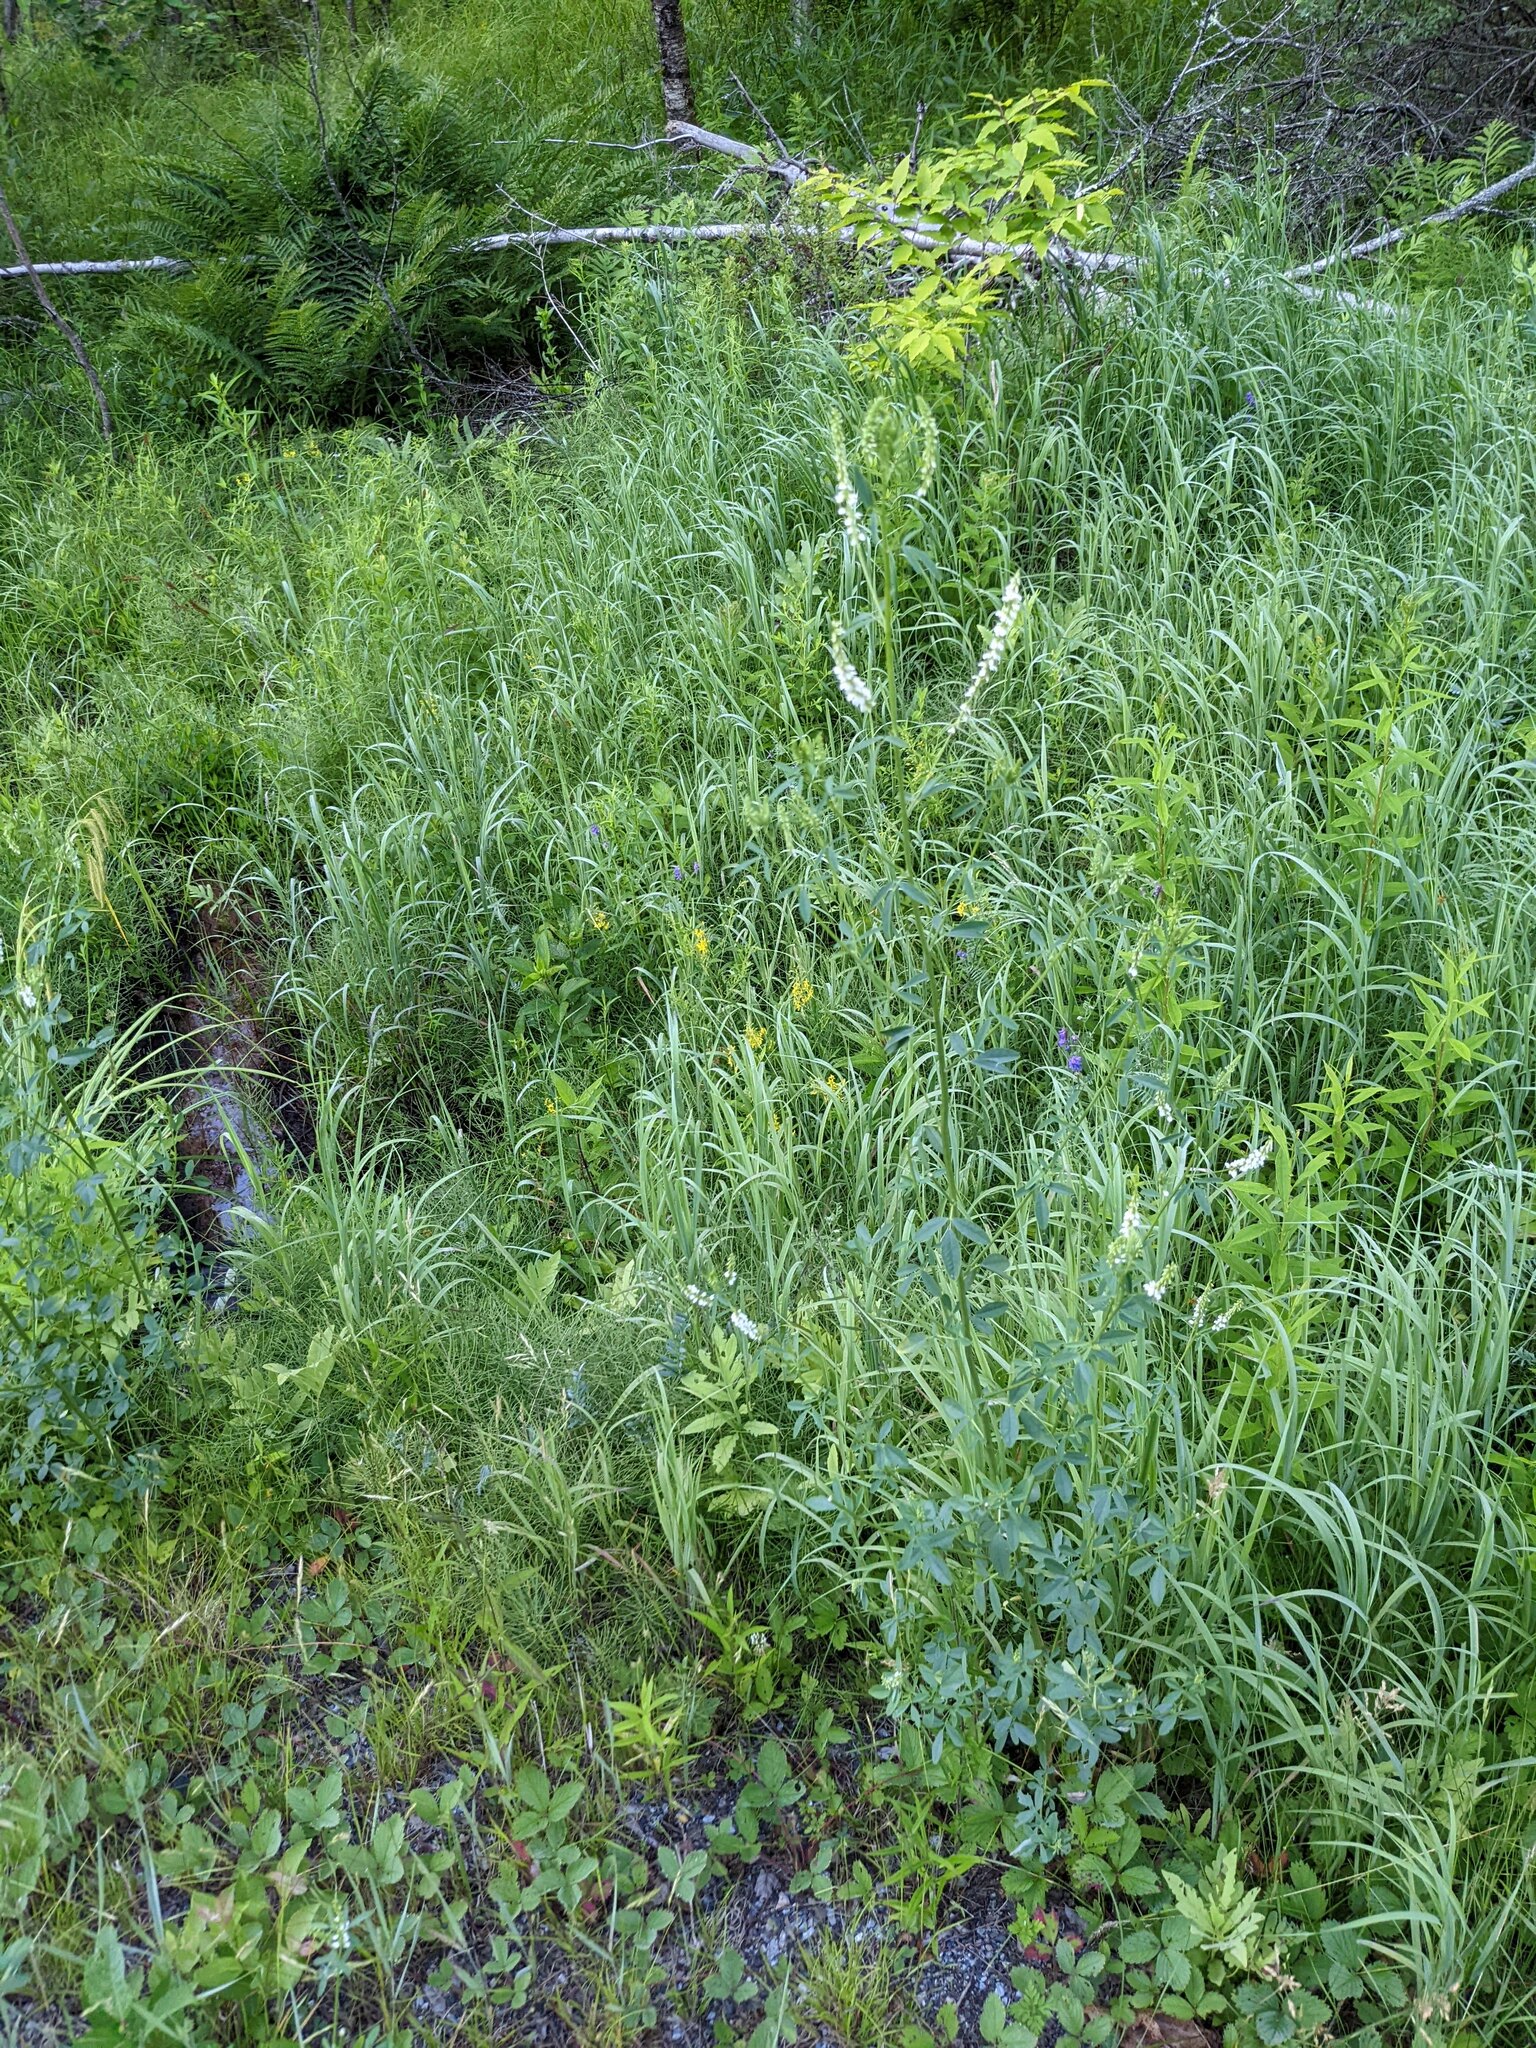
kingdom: Plantae
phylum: Tracheophyta
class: Magnoliopsida
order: Fabales
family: Fabaceae
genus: Melilotus
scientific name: Melilotus albus
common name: White melilot
